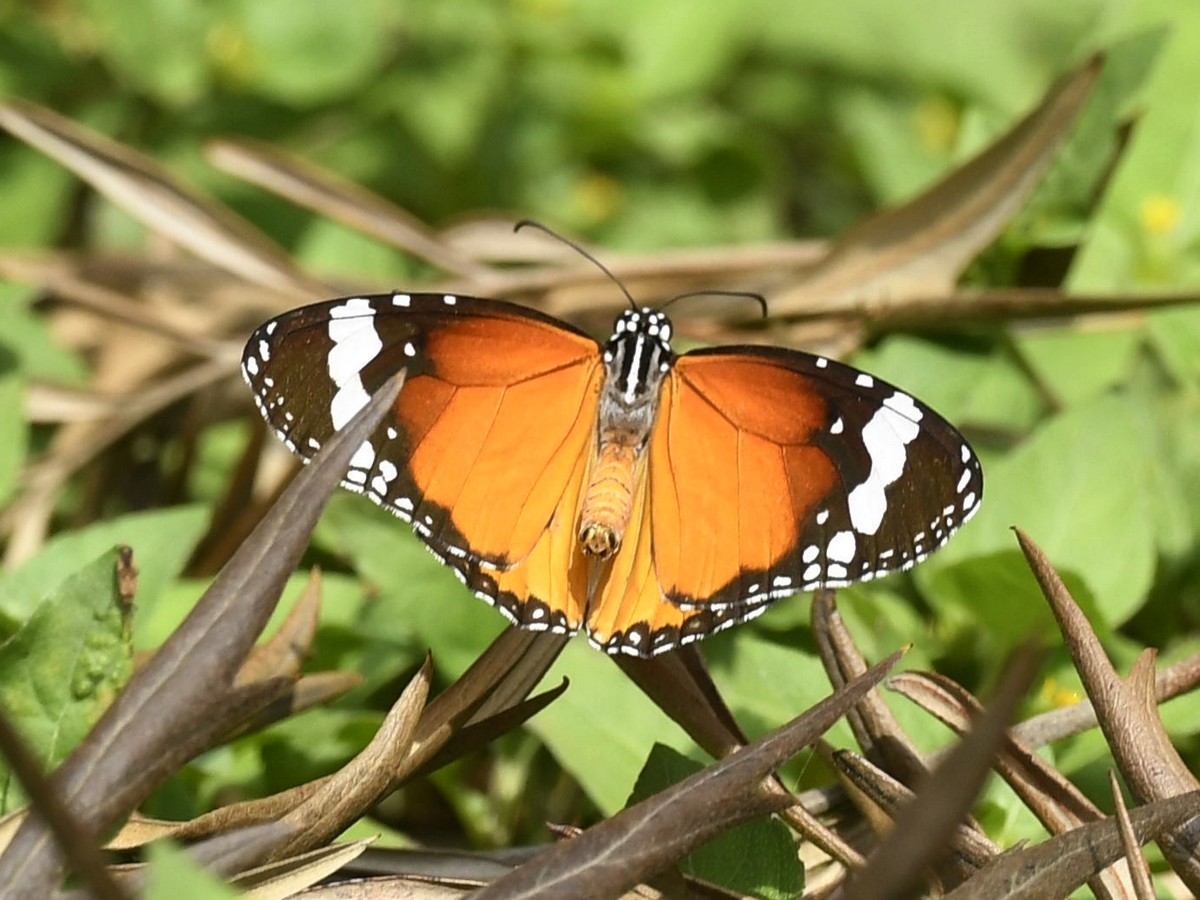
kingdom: Animalia
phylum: Arthropoda
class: Insecta
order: Lepidoptera
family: Nymphalidae
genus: Danaus
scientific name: Danaus chrysippus
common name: Plain tiger
